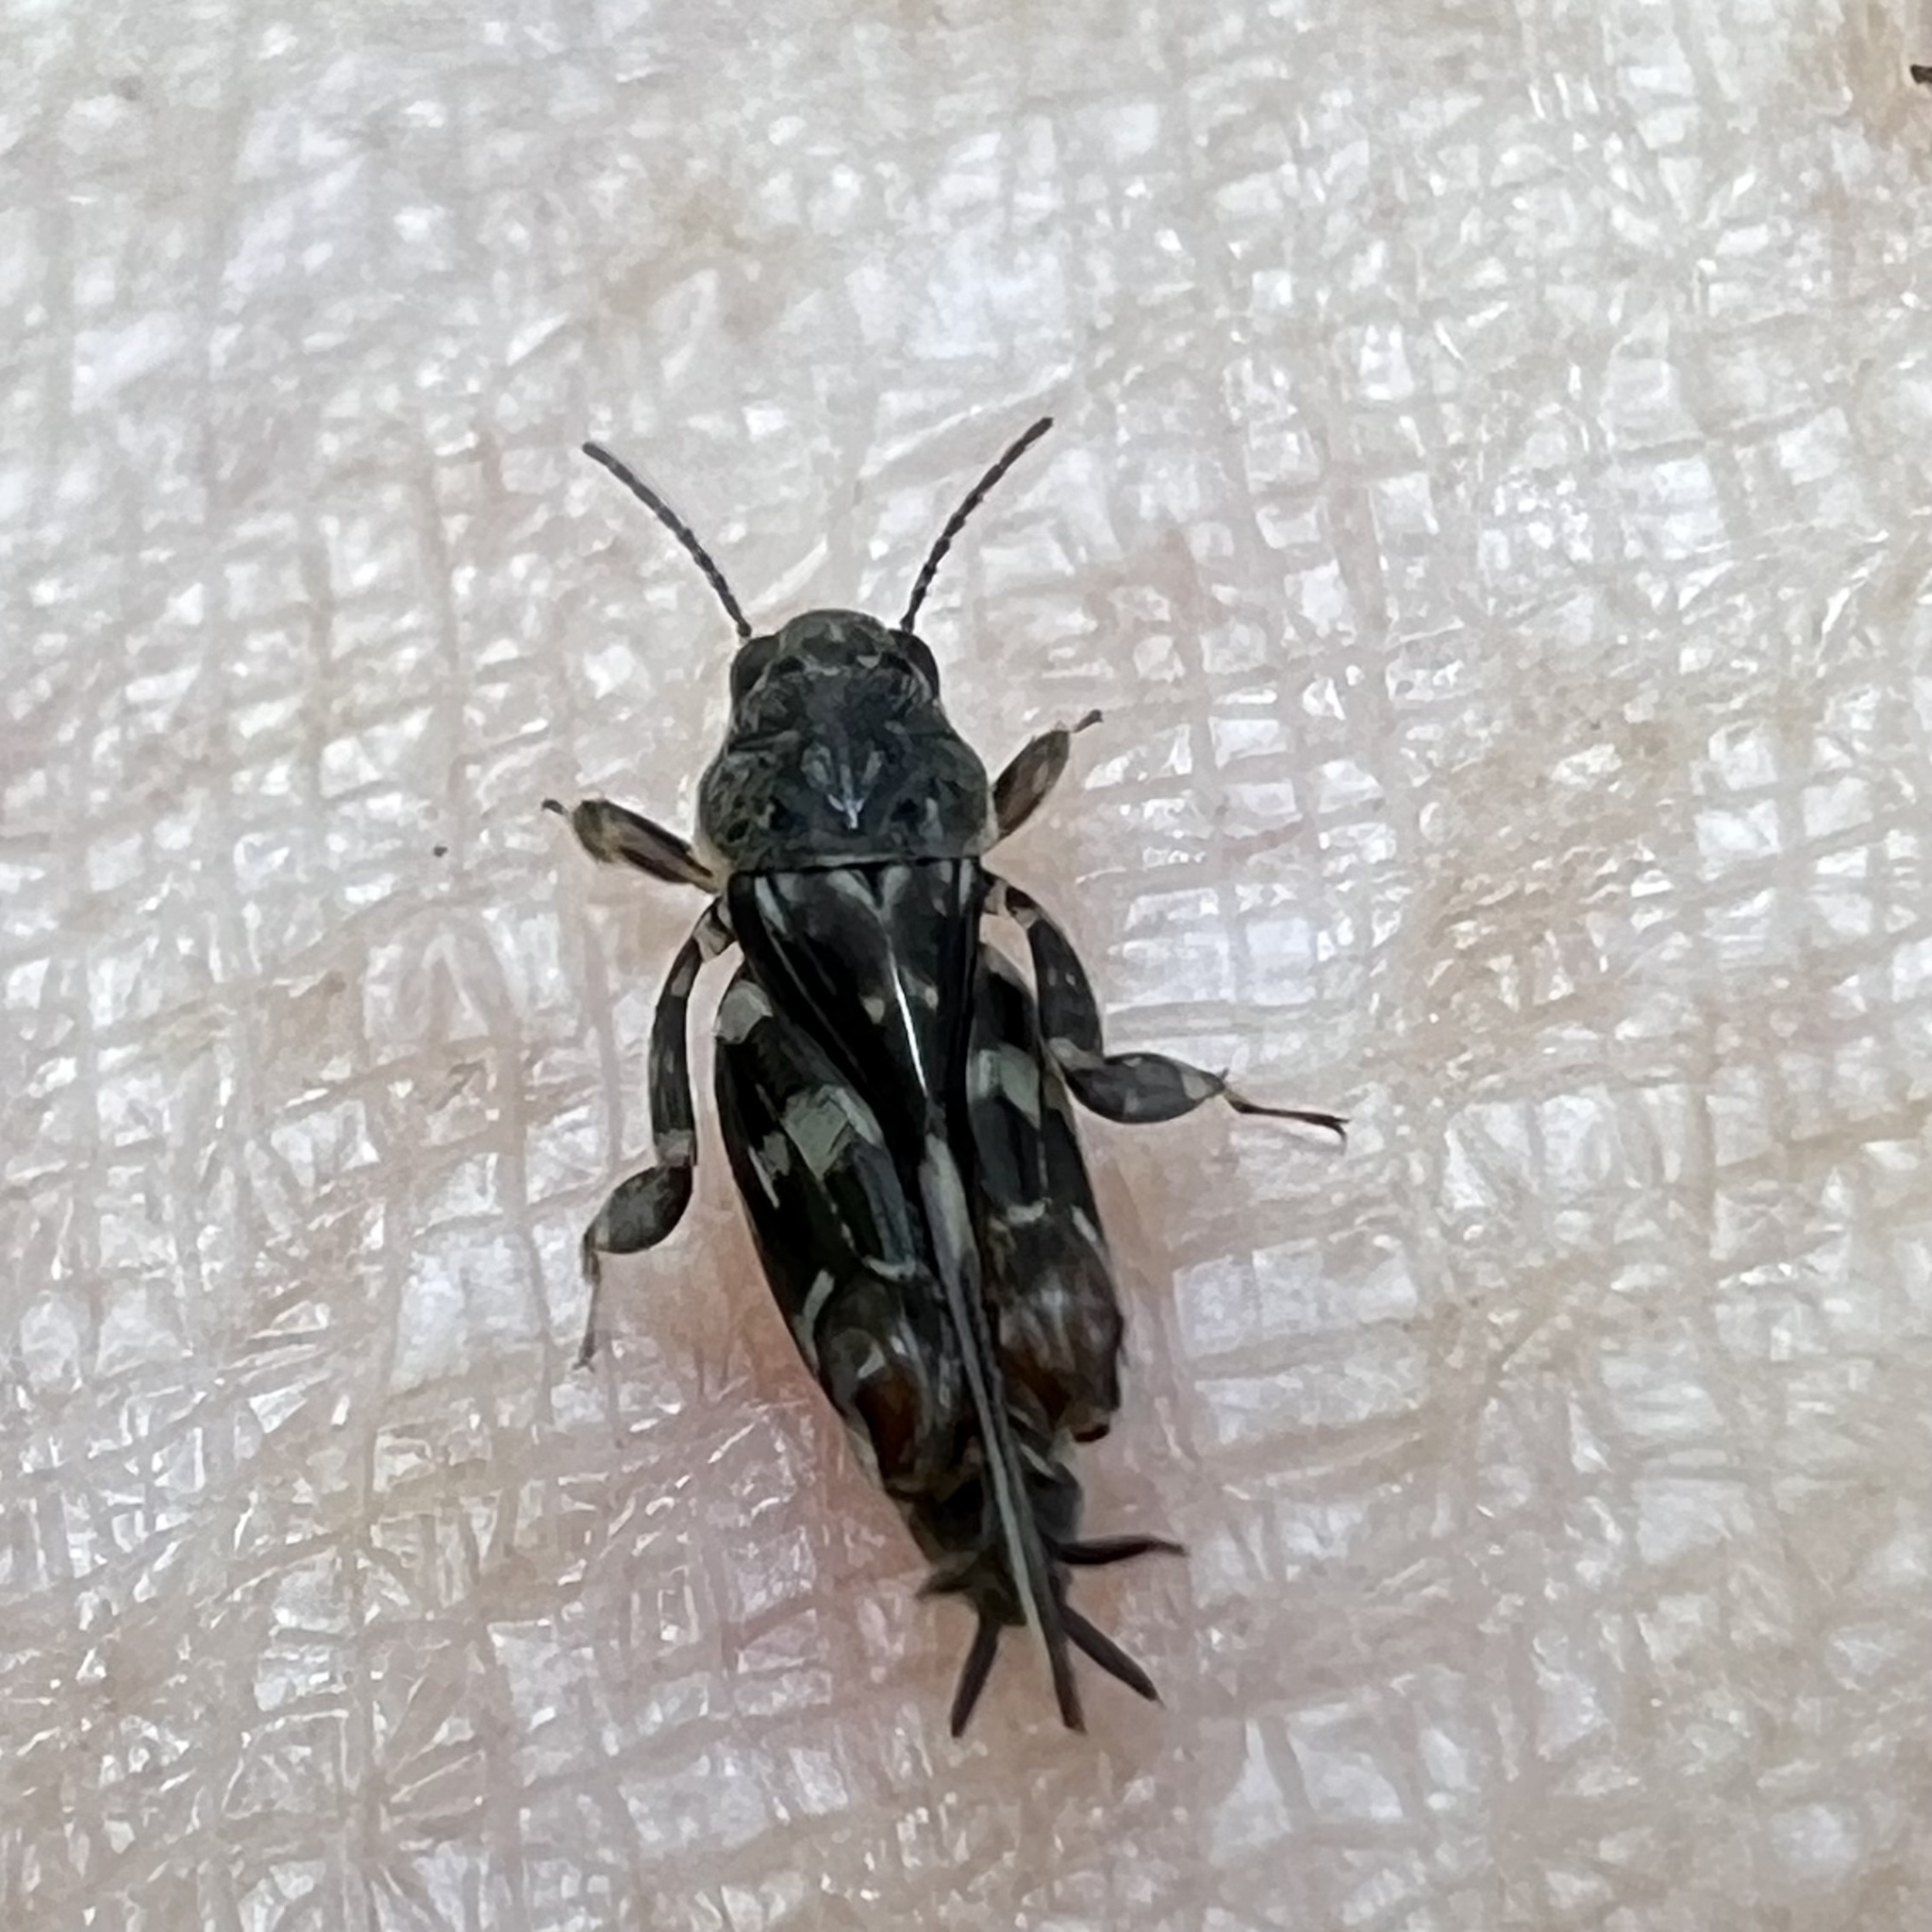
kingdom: Animalia
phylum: Arthropoda
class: Insecta
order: Orthoptera
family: Tridactylidae
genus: Ellipes
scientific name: Ellipes minuta
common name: Minute pygmy locust
